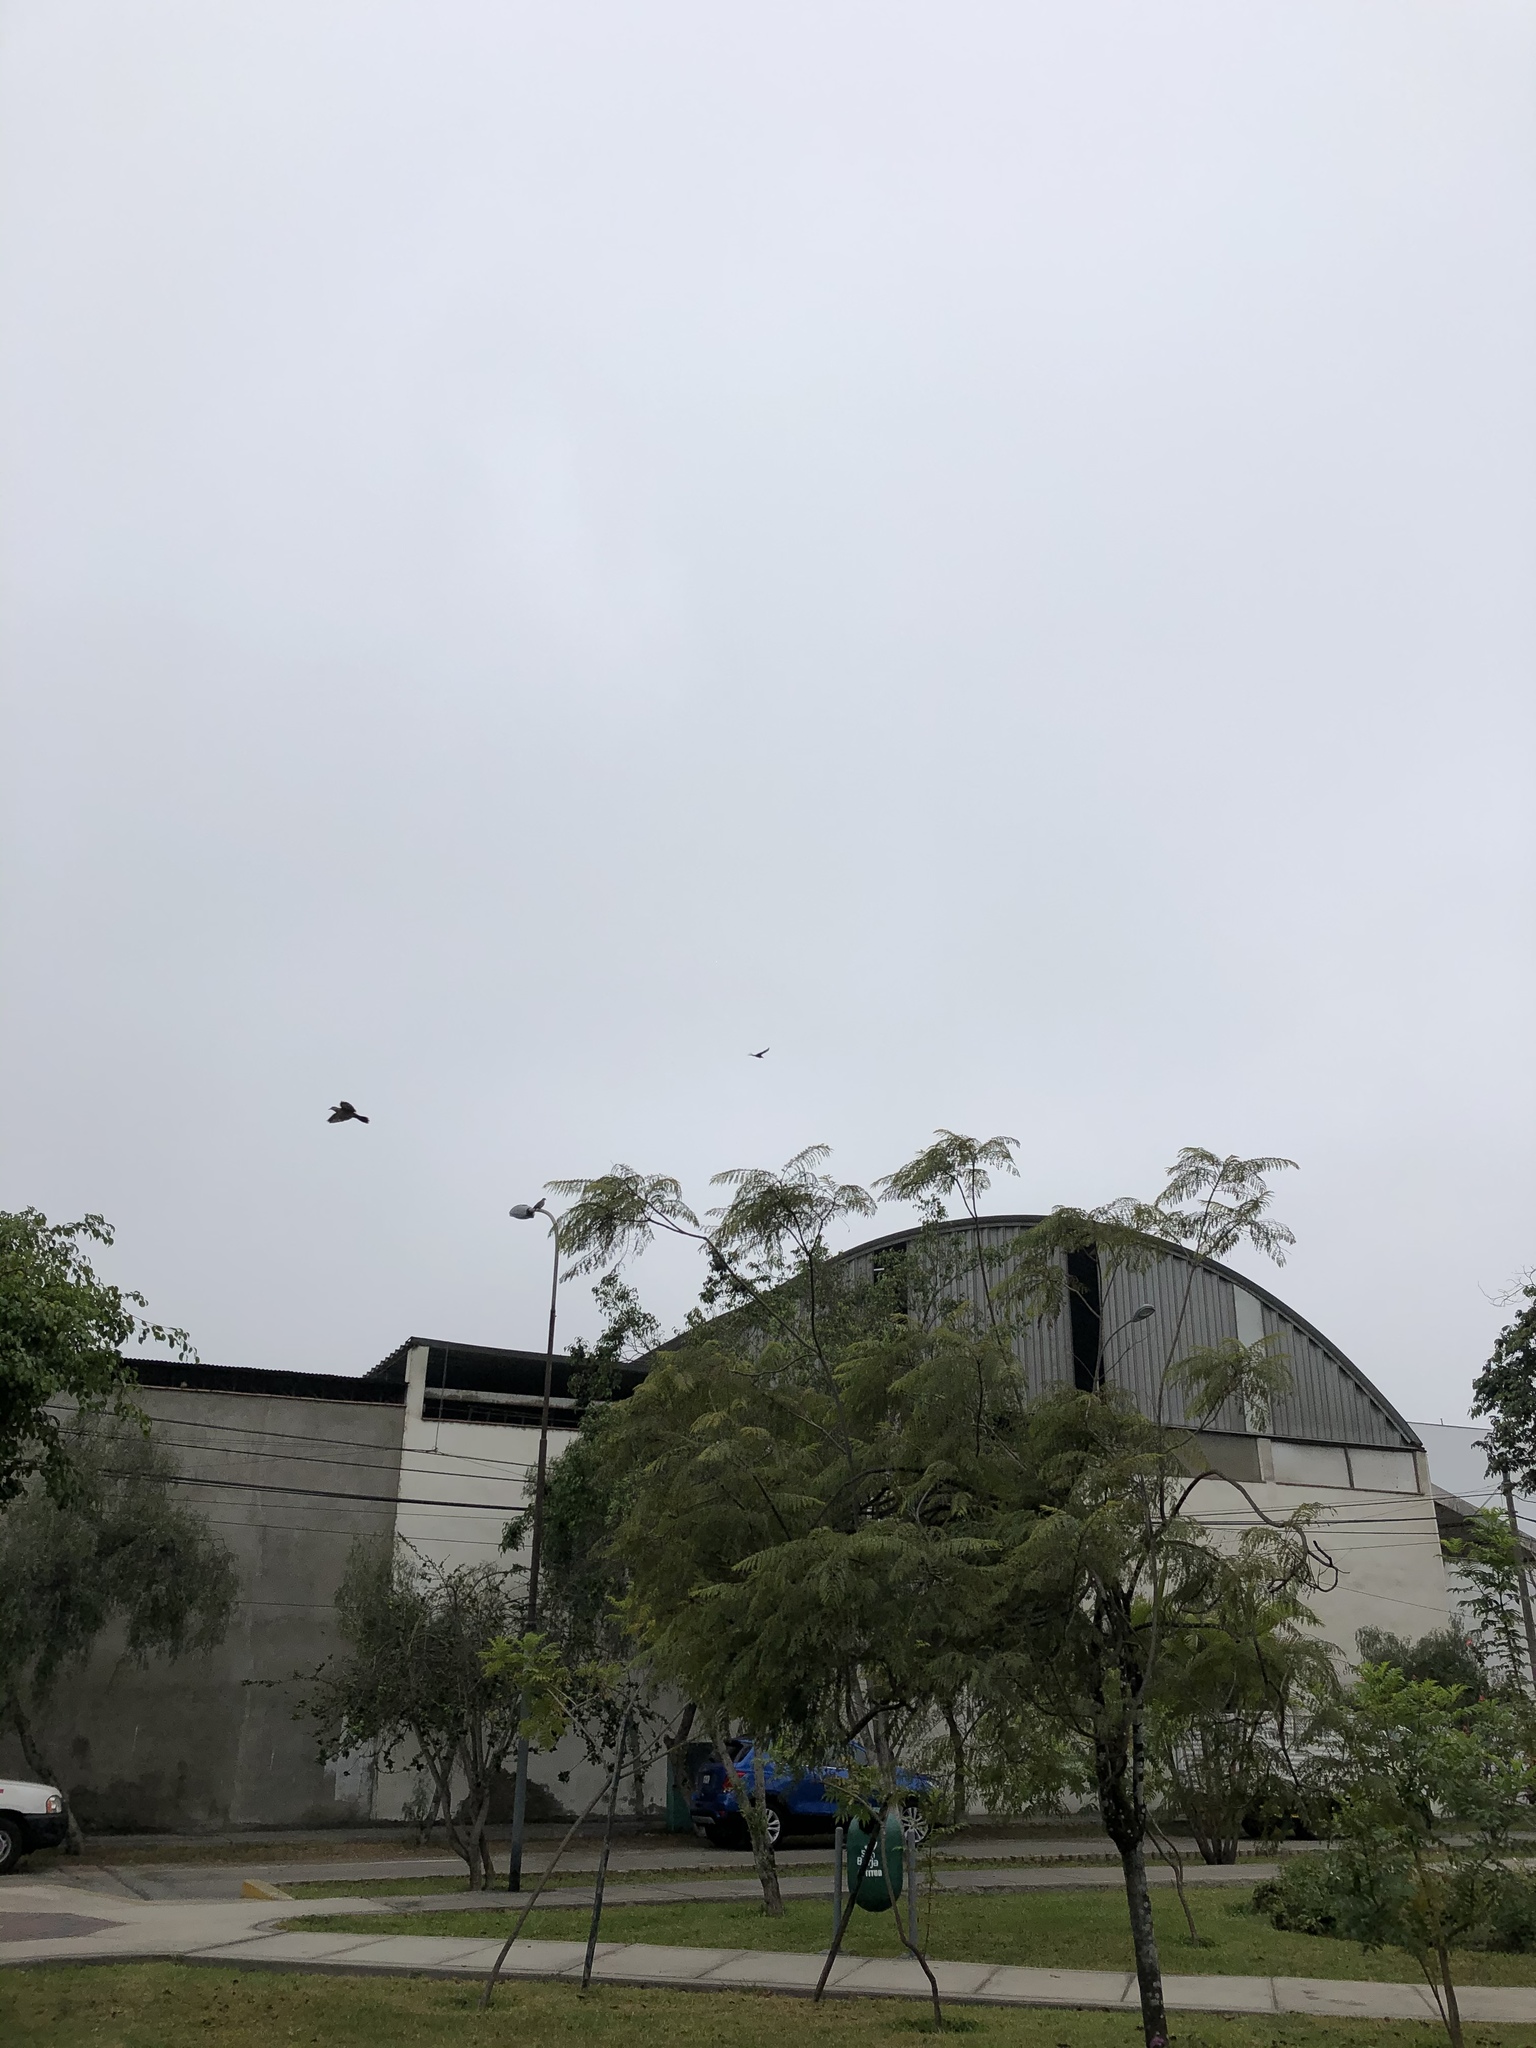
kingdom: Animalia
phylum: Chordata
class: Aves
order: Accipitriformes
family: Cathartidae
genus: Coragyps
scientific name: Coragyps atratus
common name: Black vulture
